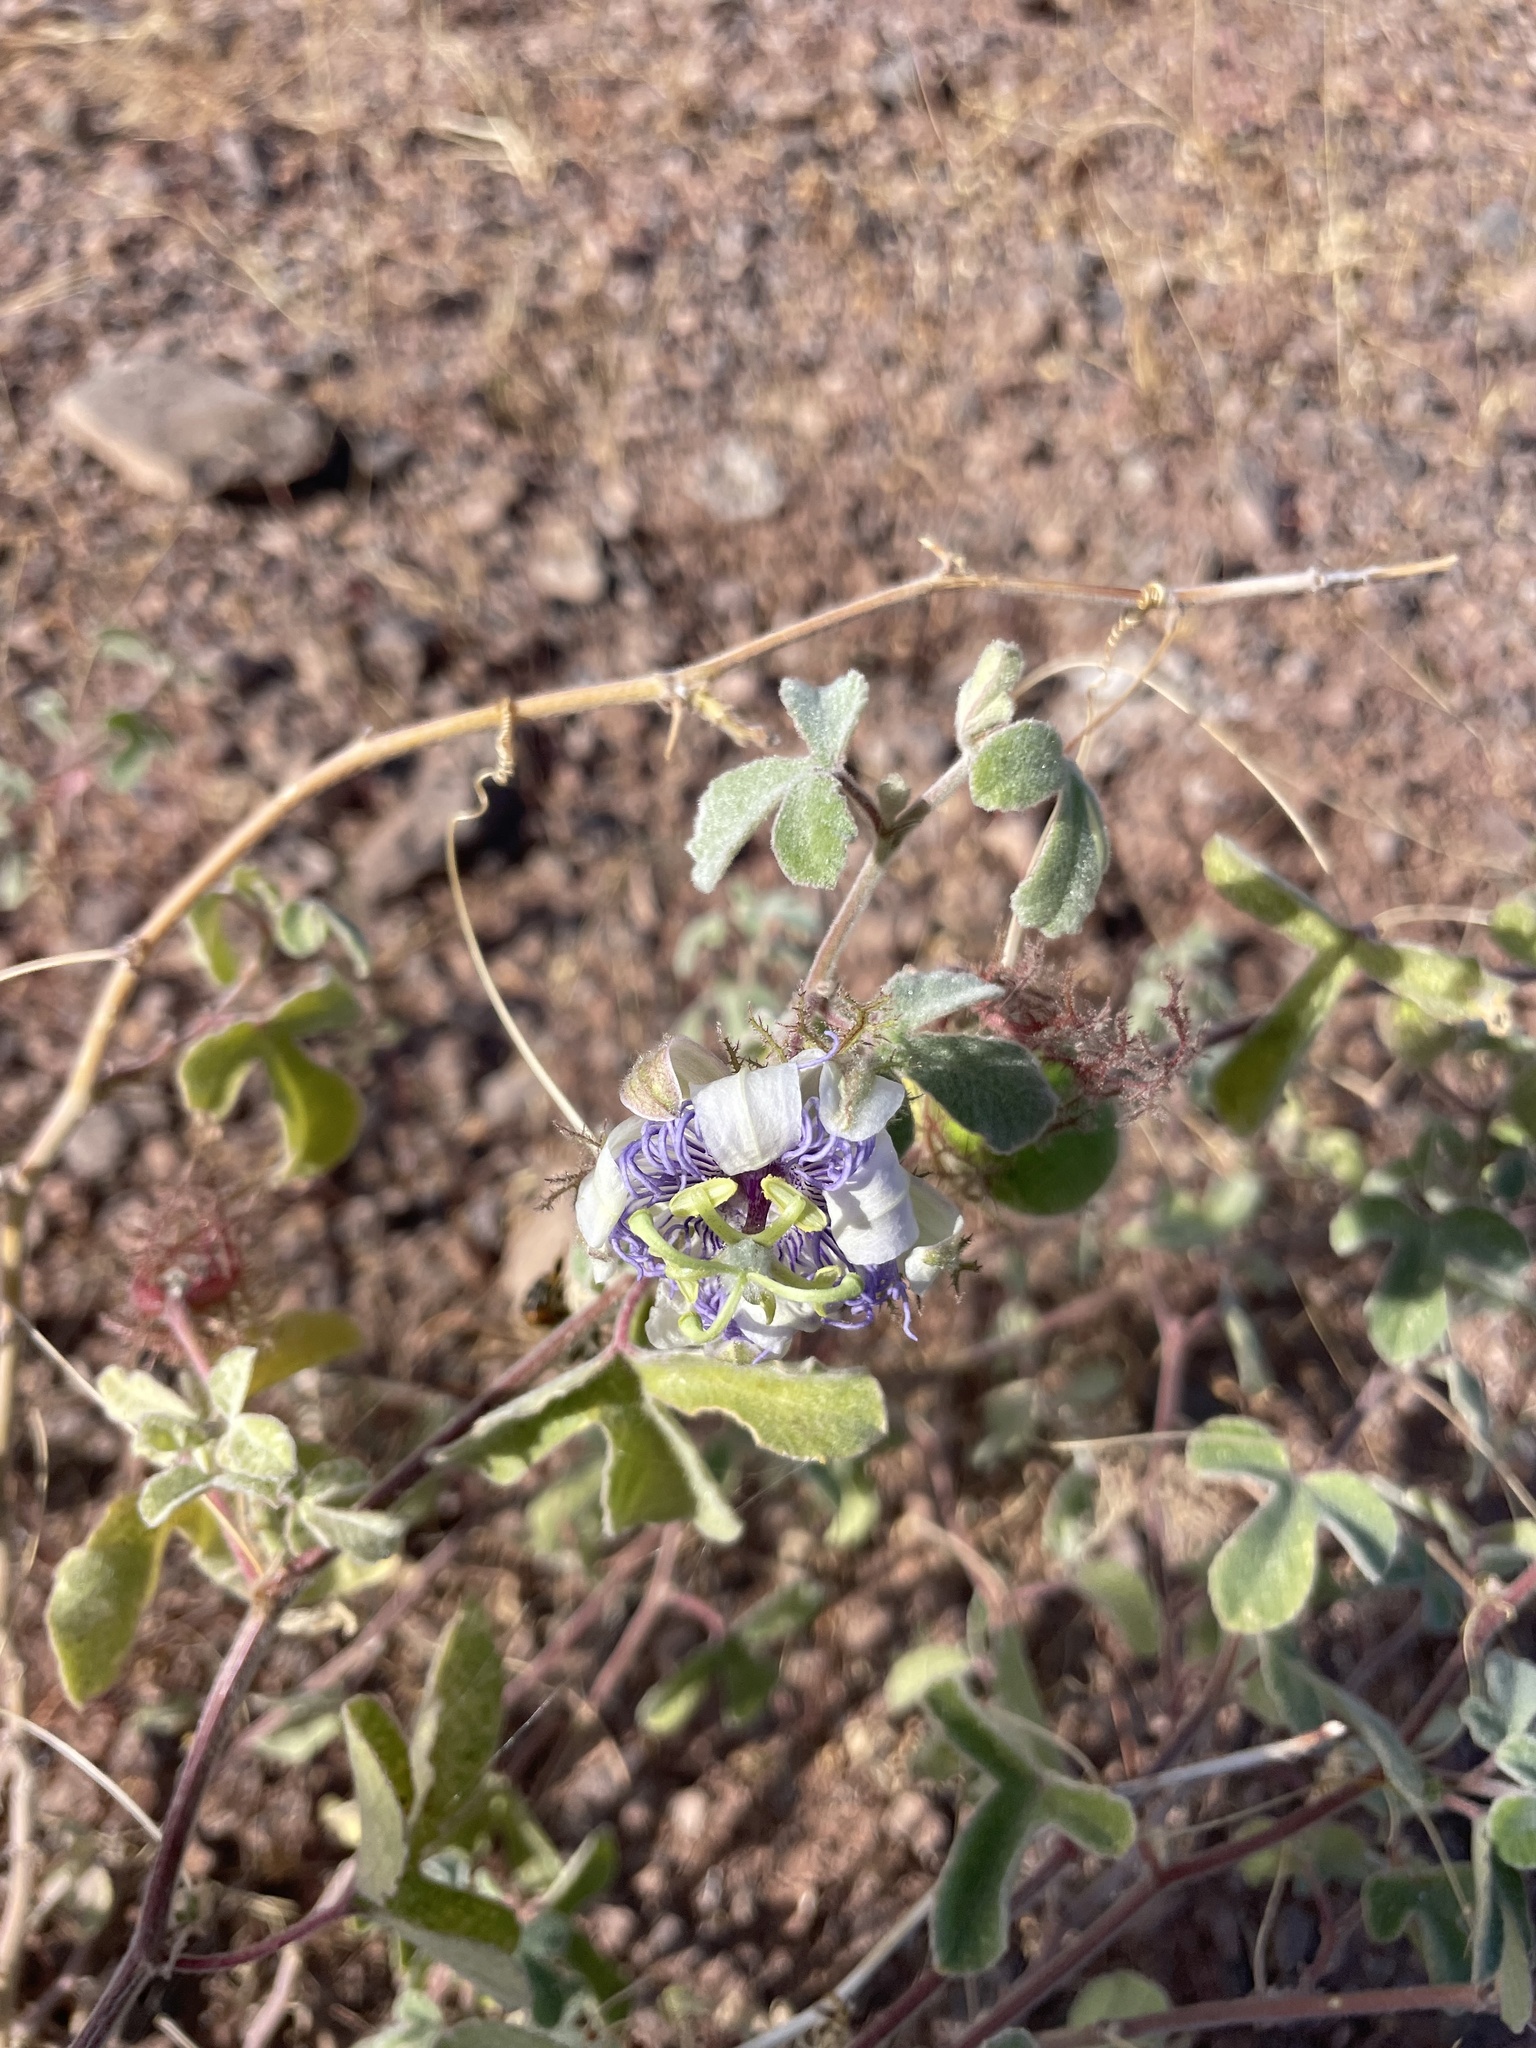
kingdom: Plantae
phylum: Tracheophyta
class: Magnoliopsida
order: Malpighiales
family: Passifloraceae
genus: Passiflora
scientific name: Passiflora arida
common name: Desert passionflower
